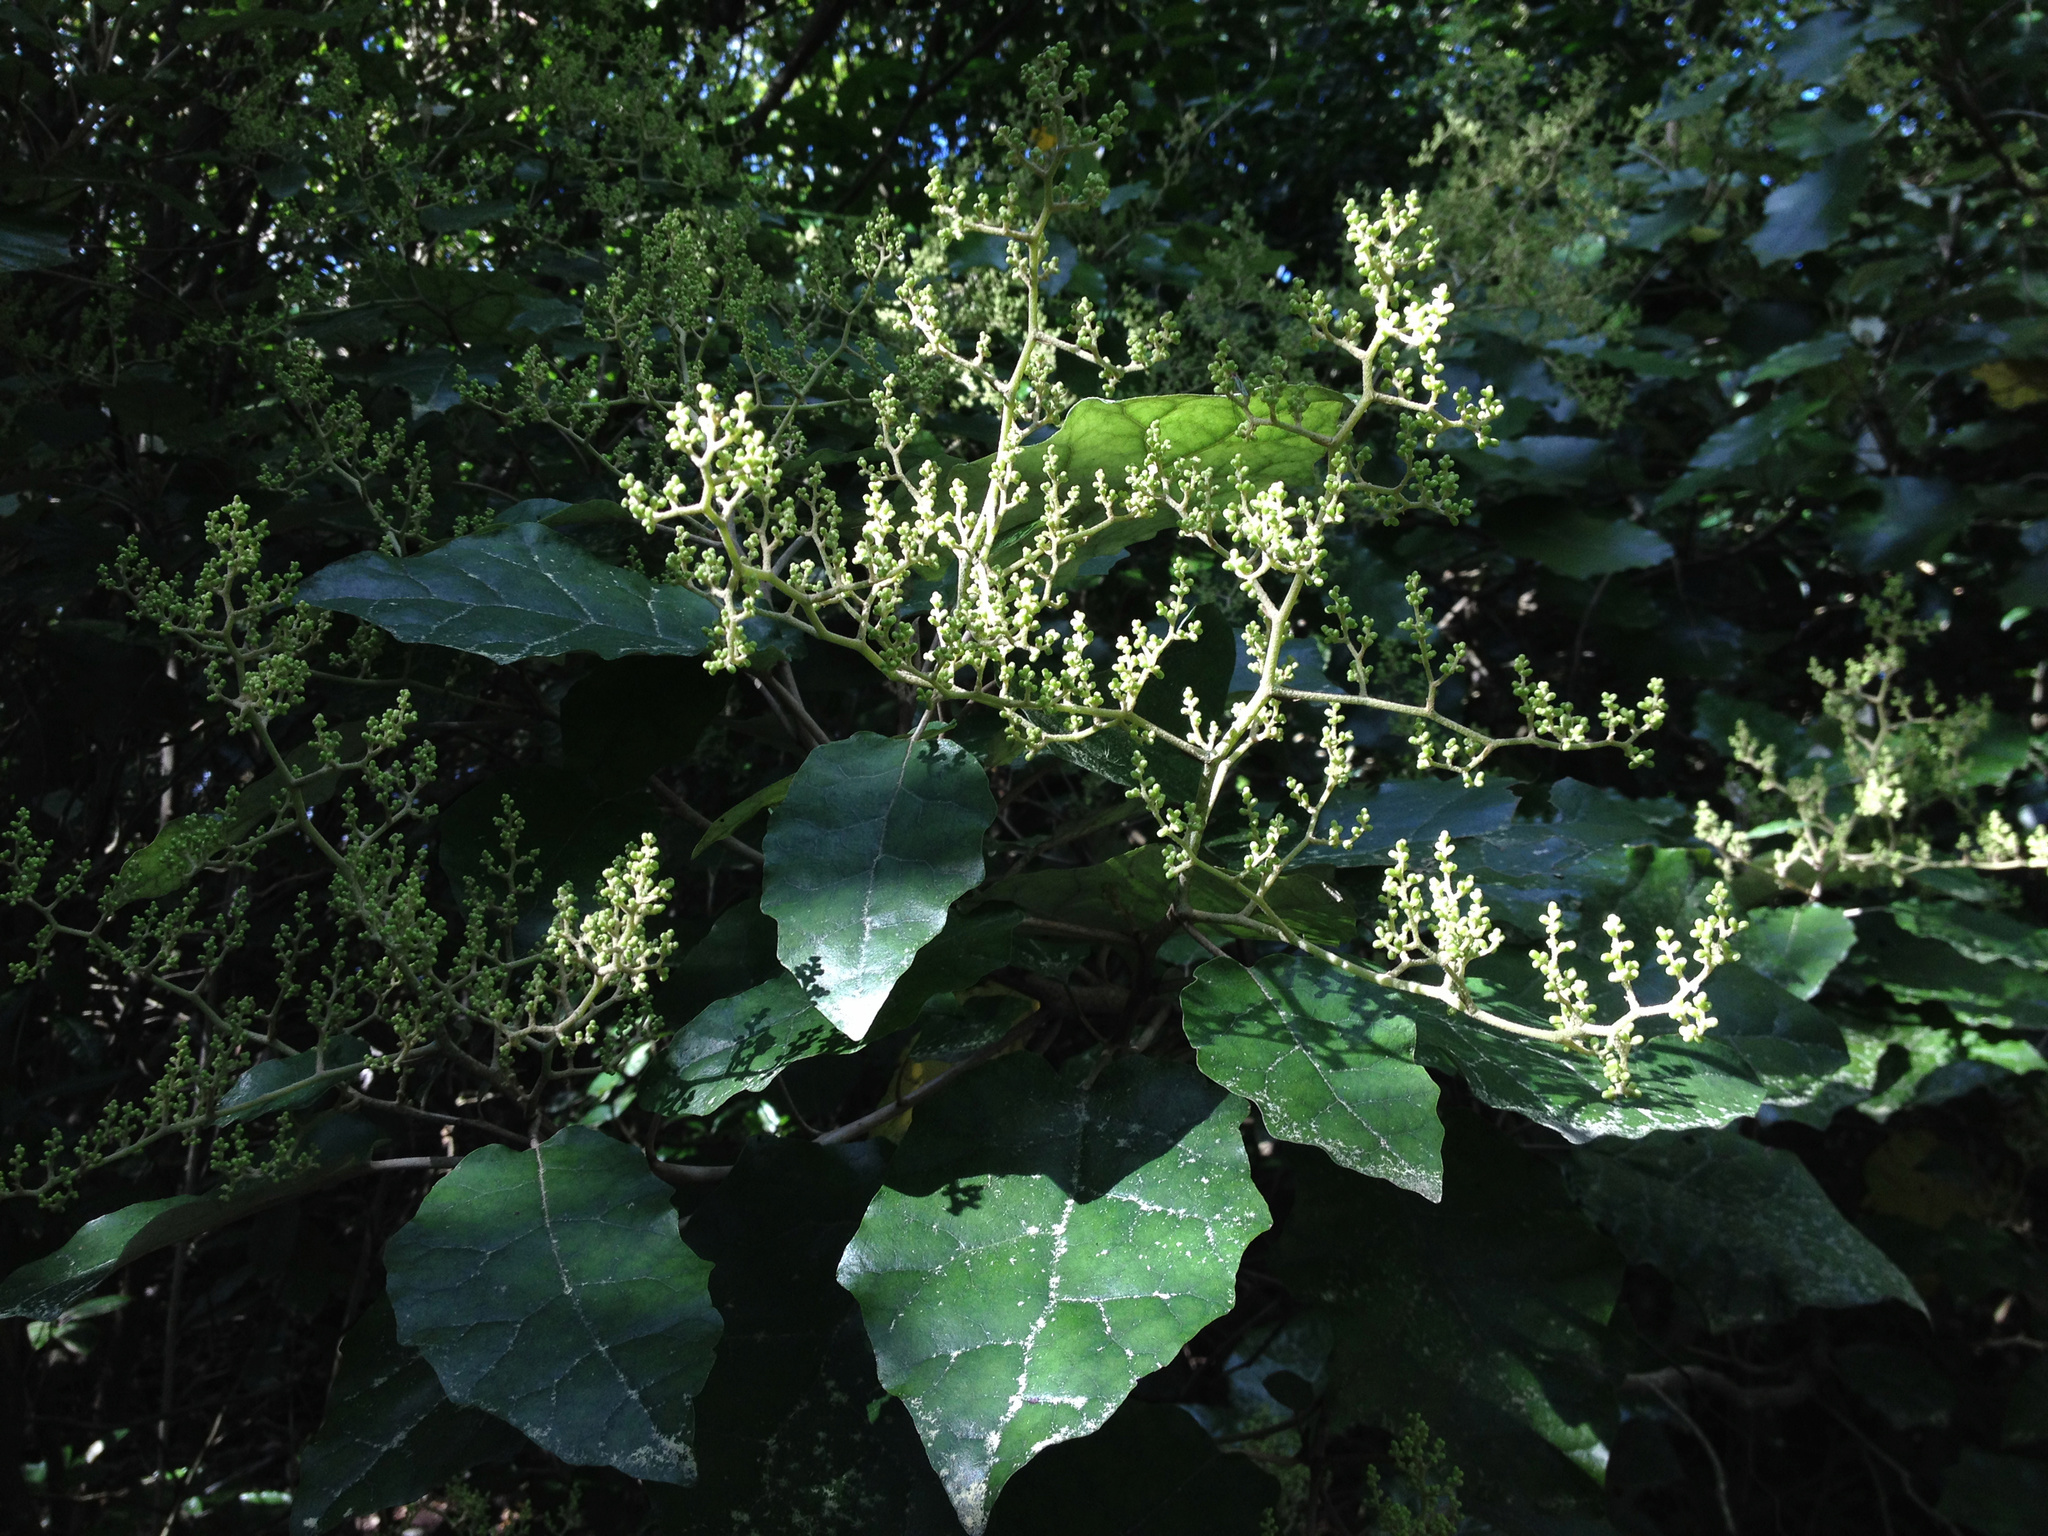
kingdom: Plantae
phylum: Tracheophyta
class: Magnoliopsida
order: Asterales
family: Asteraceae
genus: Brachyglottis
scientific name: Brachyglottis repanda
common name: Hedge ragwort
